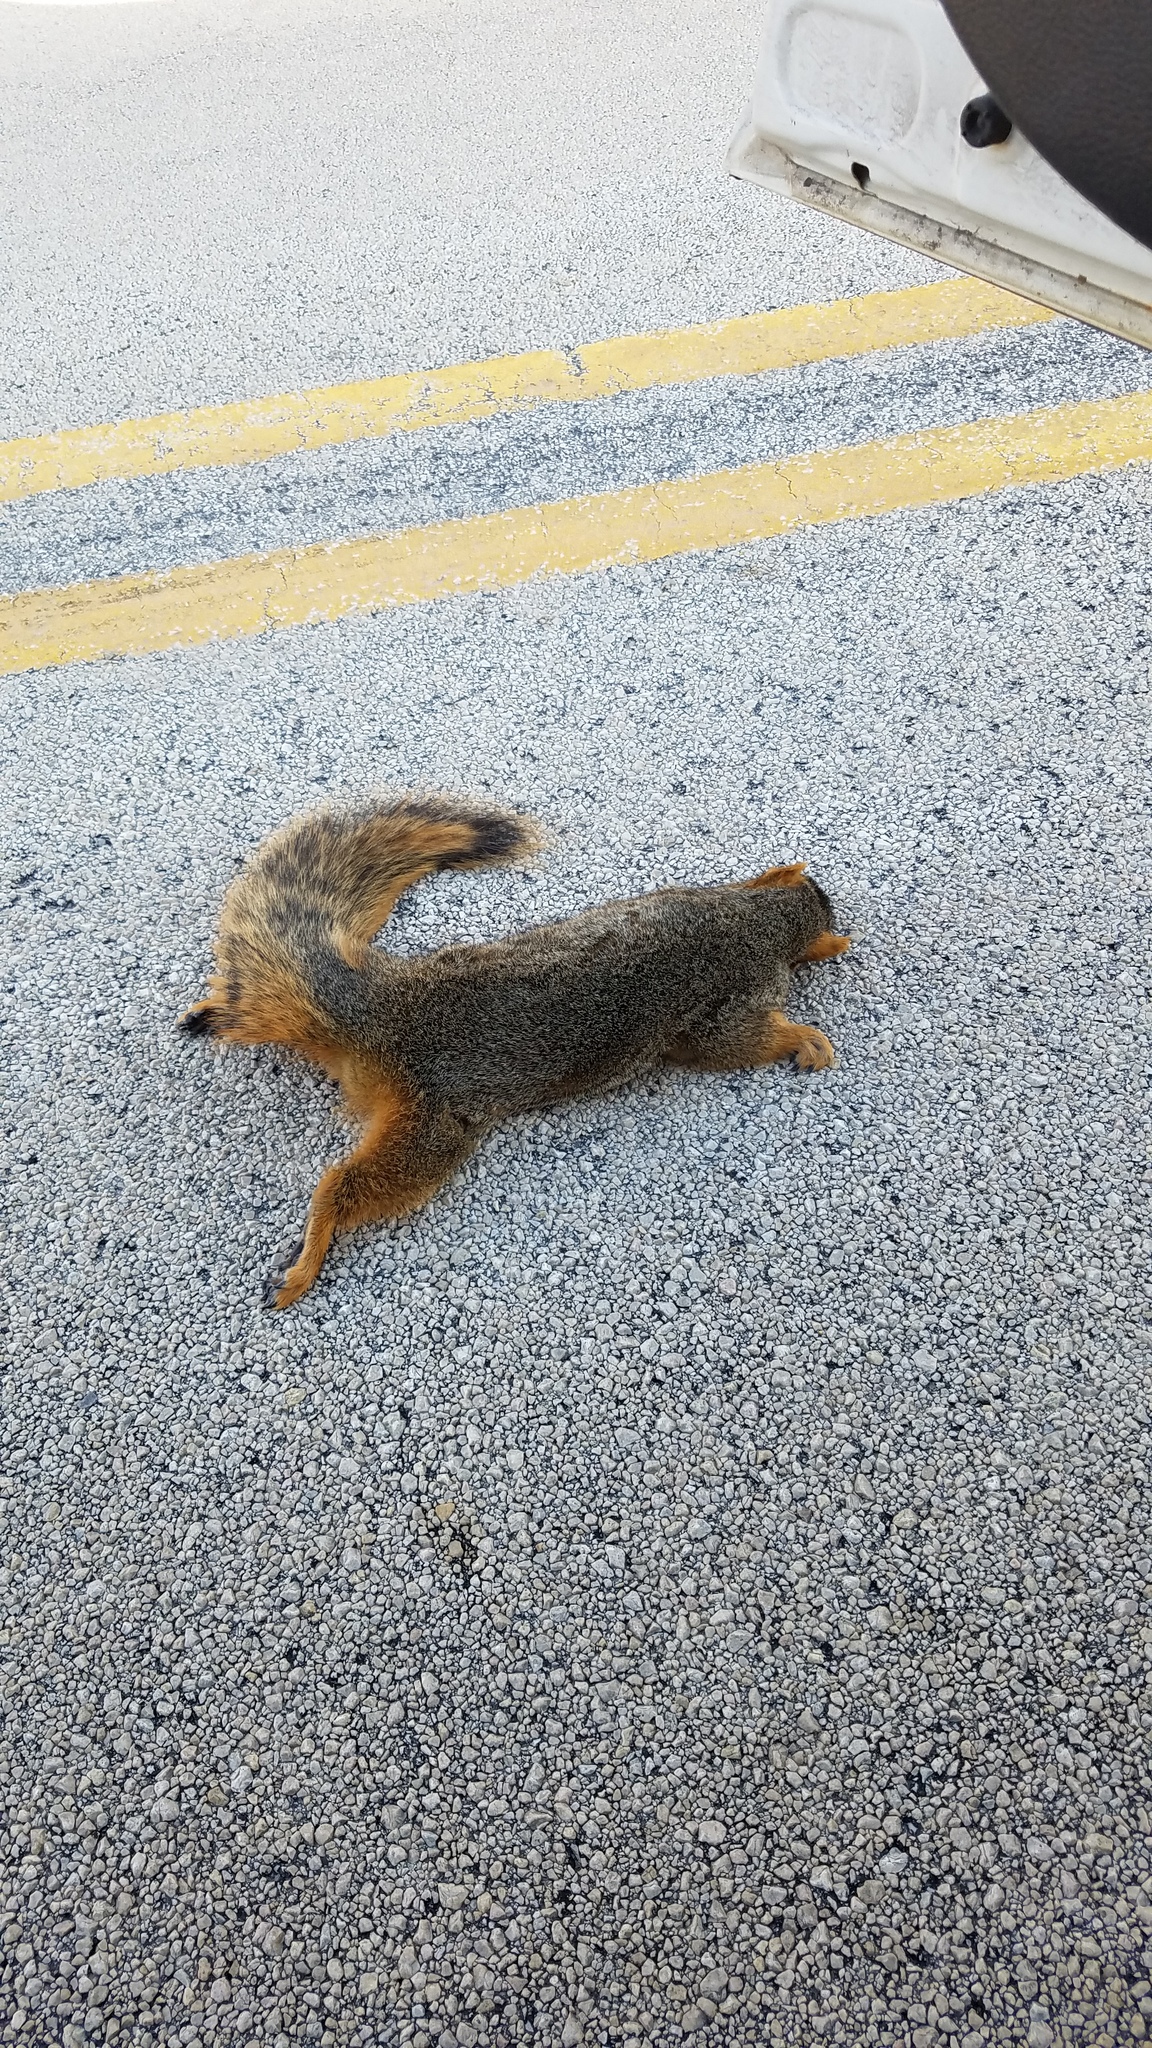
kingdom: Animalia
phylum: Chordata
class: Mammalia
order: Rodentia
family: Sciuridae
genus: Sciurus
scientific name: Sciurus niger
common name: Fox squirrel
